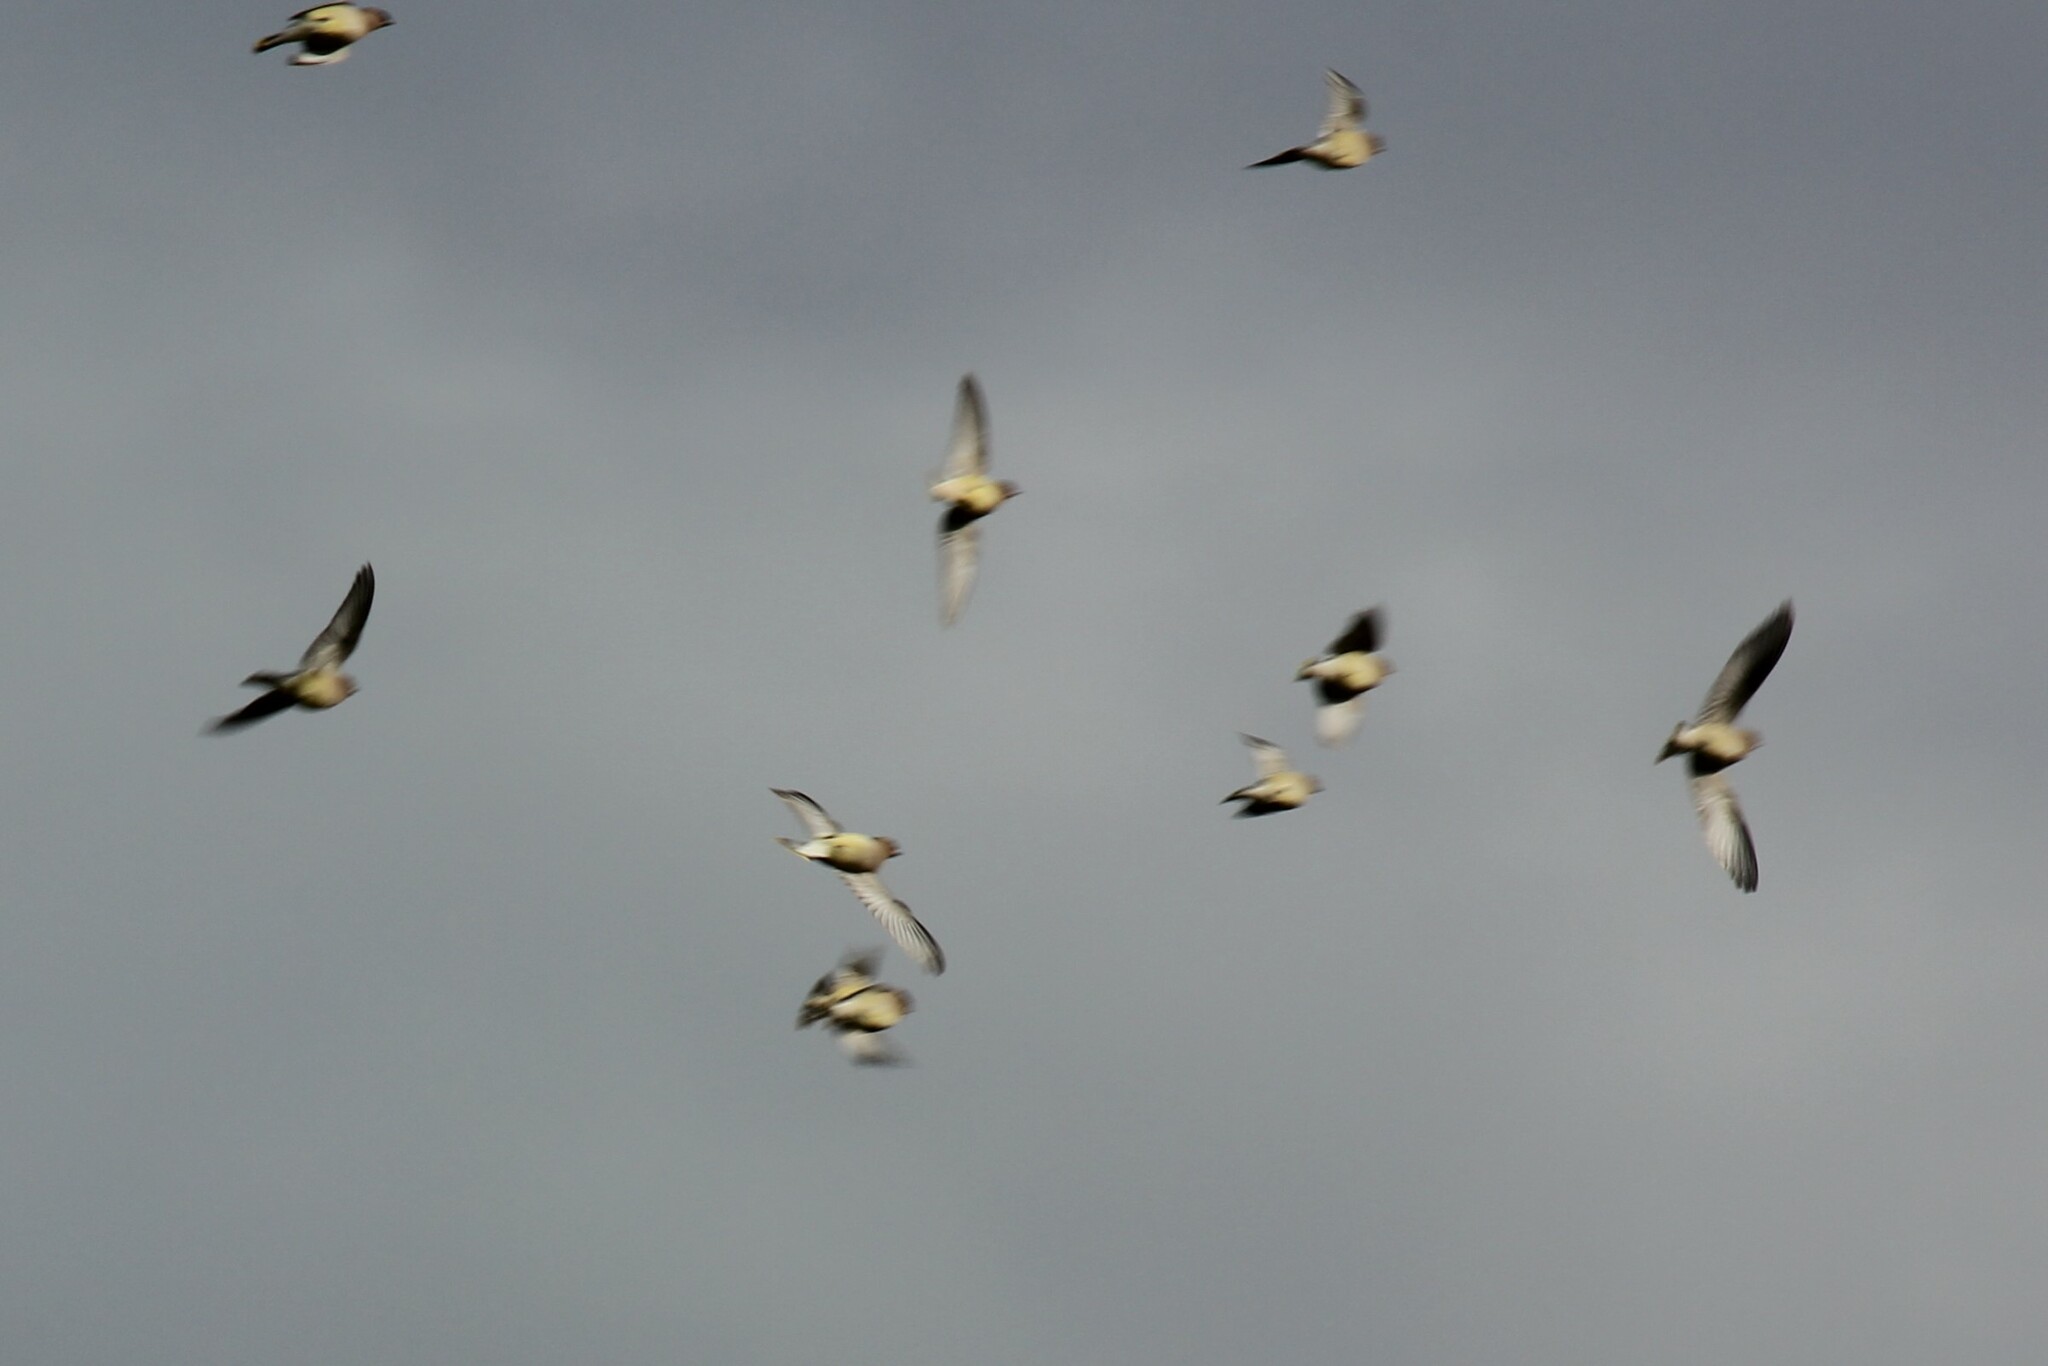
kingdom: Animalia
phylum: Chordata
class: Aves
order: Passeriformes
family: Bombycillidae
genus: Bombycilla
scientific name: Bombycilla cedrorum
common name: Cedar waxwing
